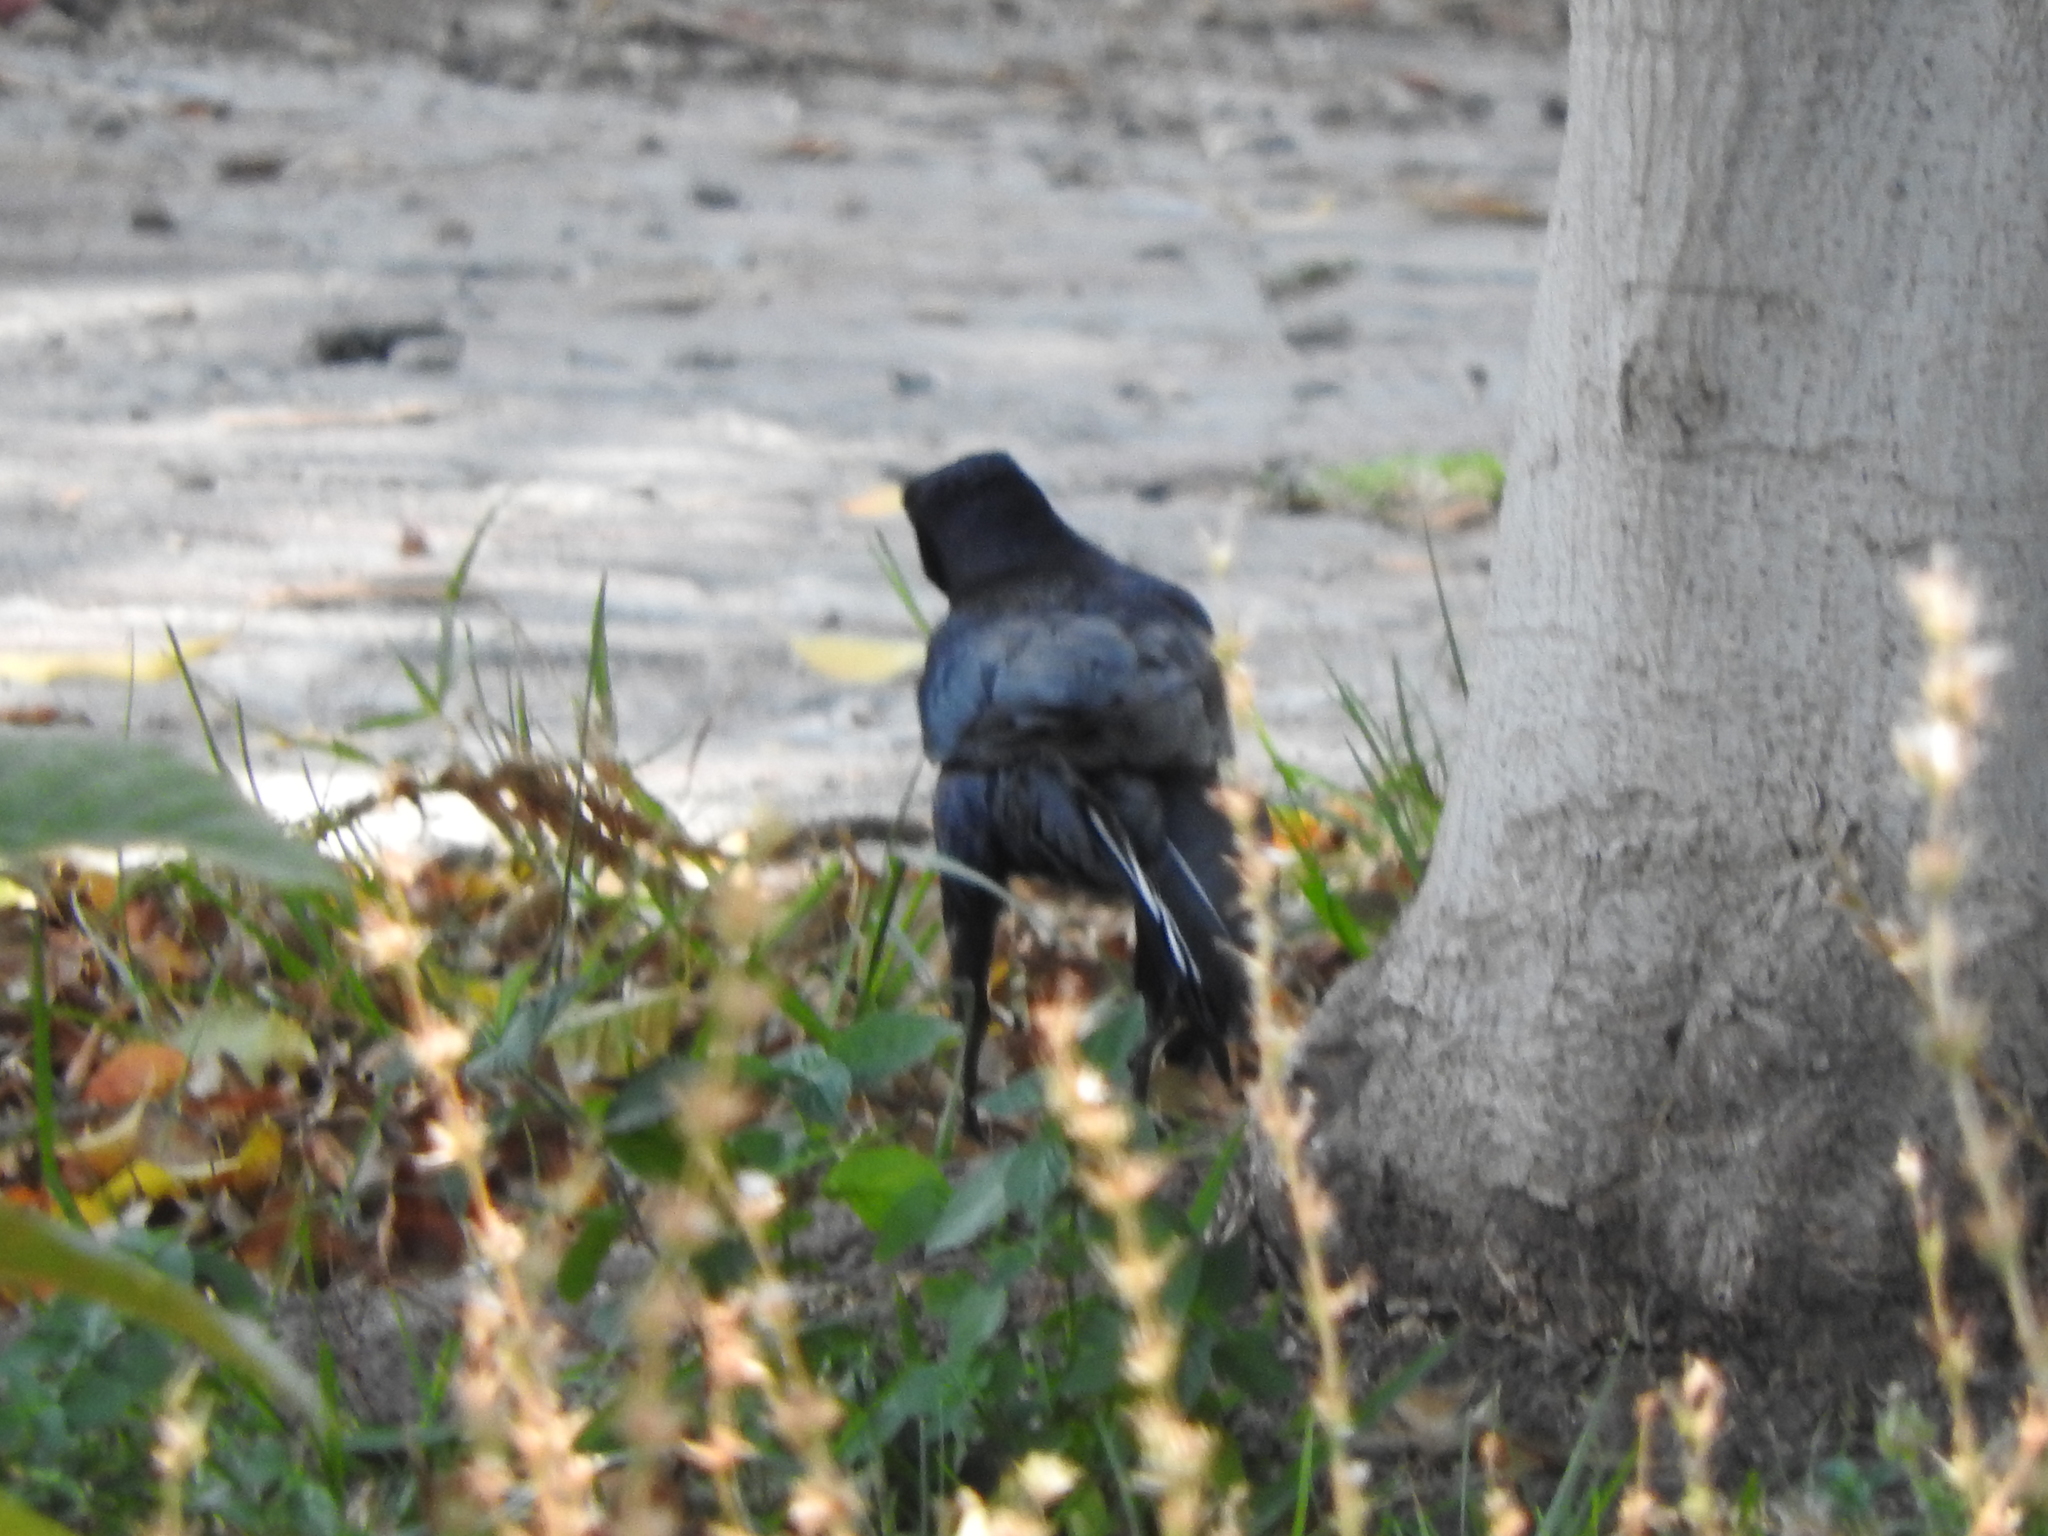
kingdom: Animalia
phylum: Chordata
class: Aves
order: Passeriformes
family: Icteridae
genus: Quiscalus
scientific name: Quiscalus mexicanus
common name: Great-tailed grackle
